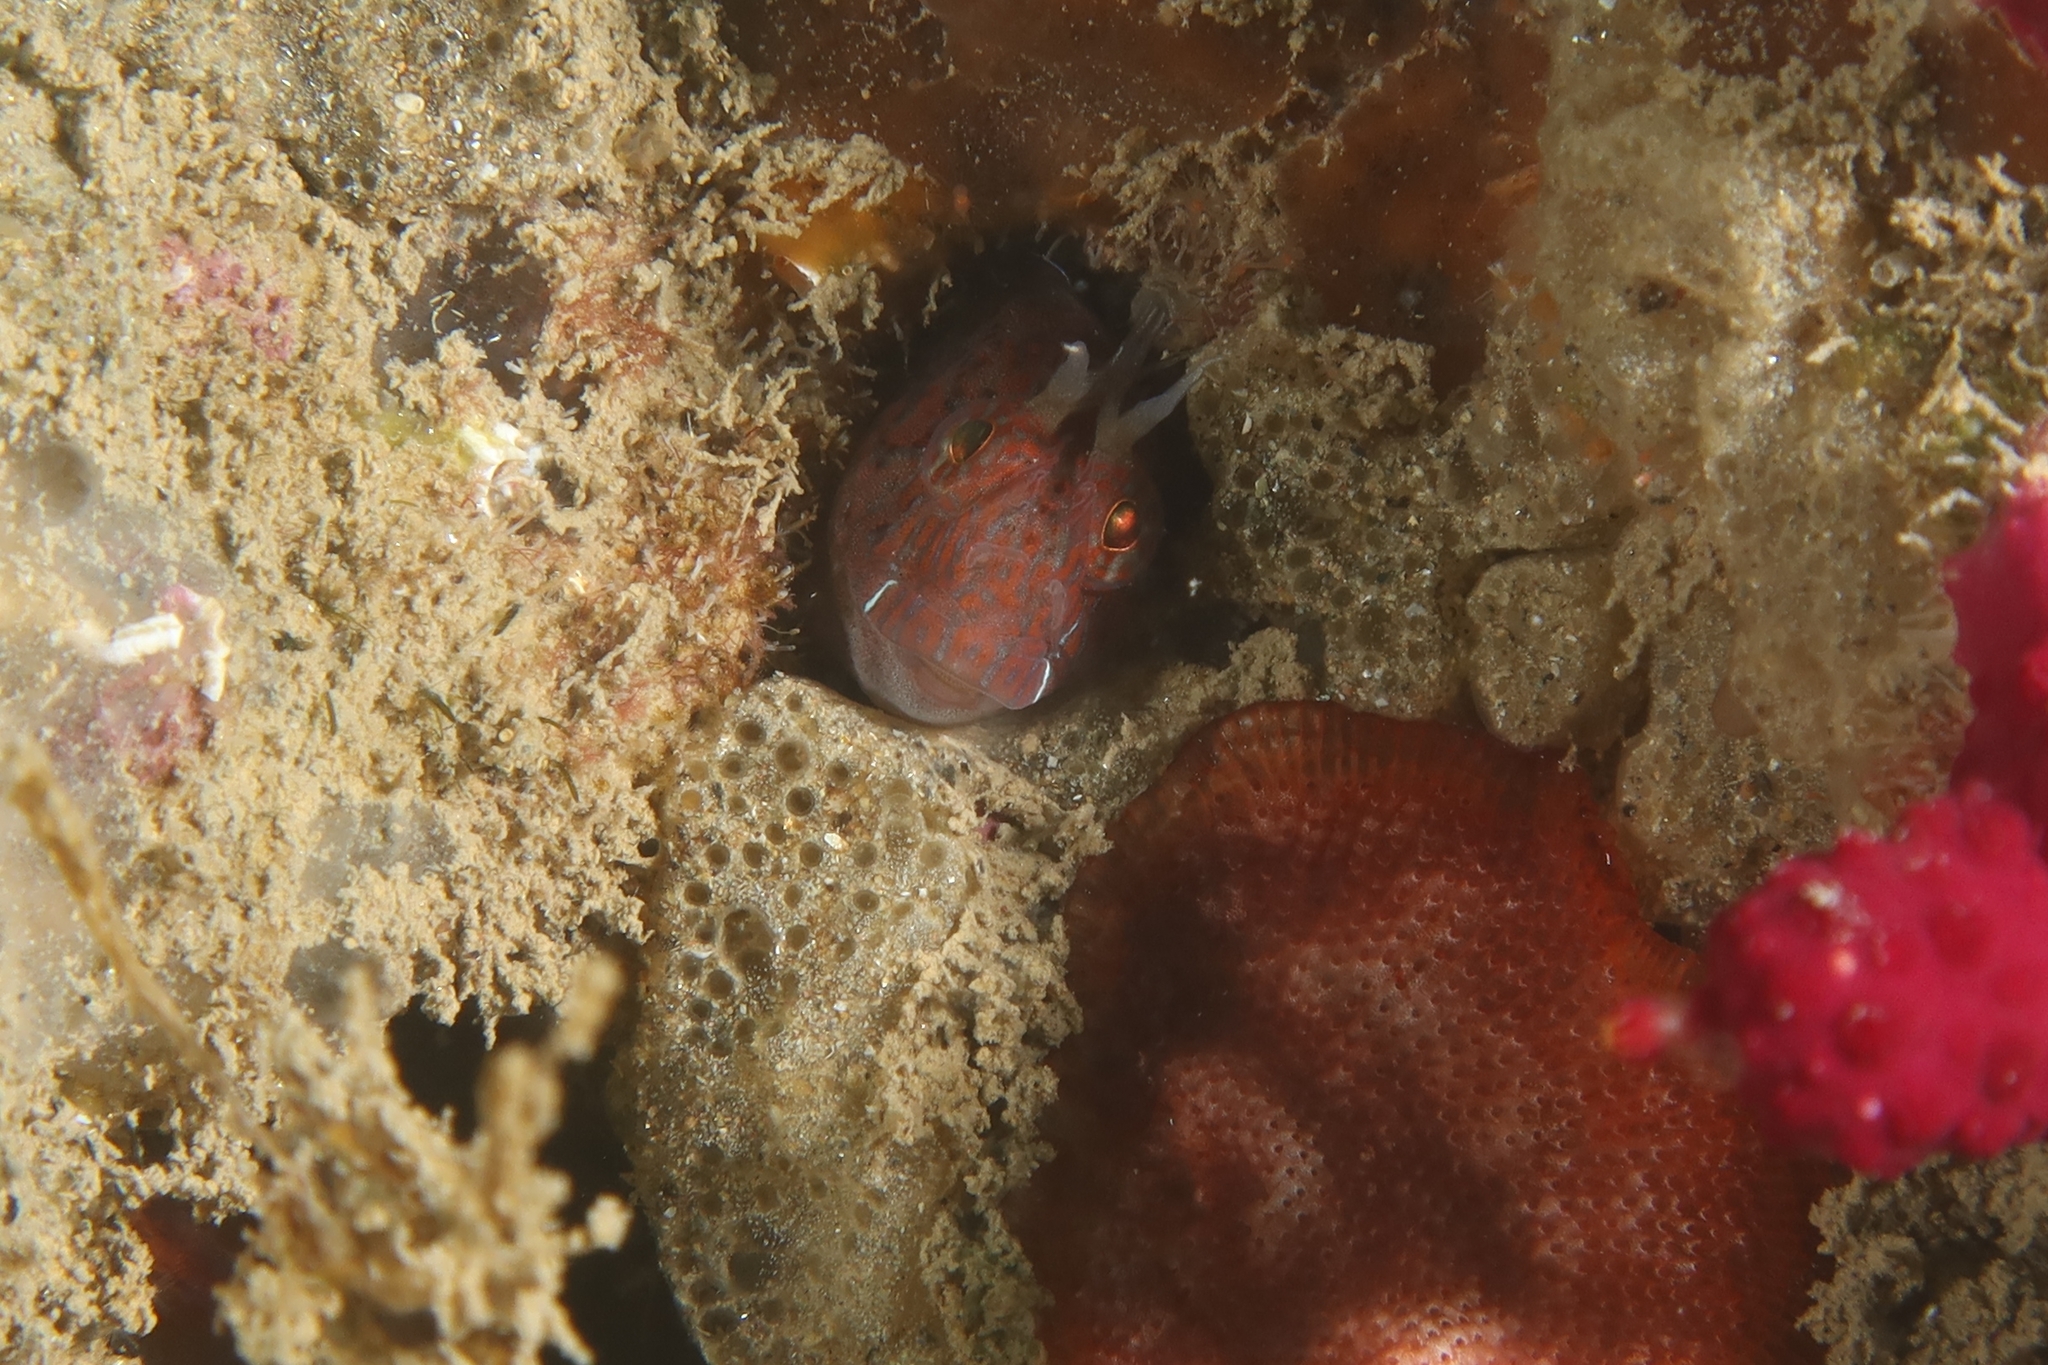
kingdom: Animalia
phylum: Chordata
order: Perciformes
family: Blenniidae
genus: Parablennius
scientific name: Parablennius zvonimiri
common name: Red blenny
